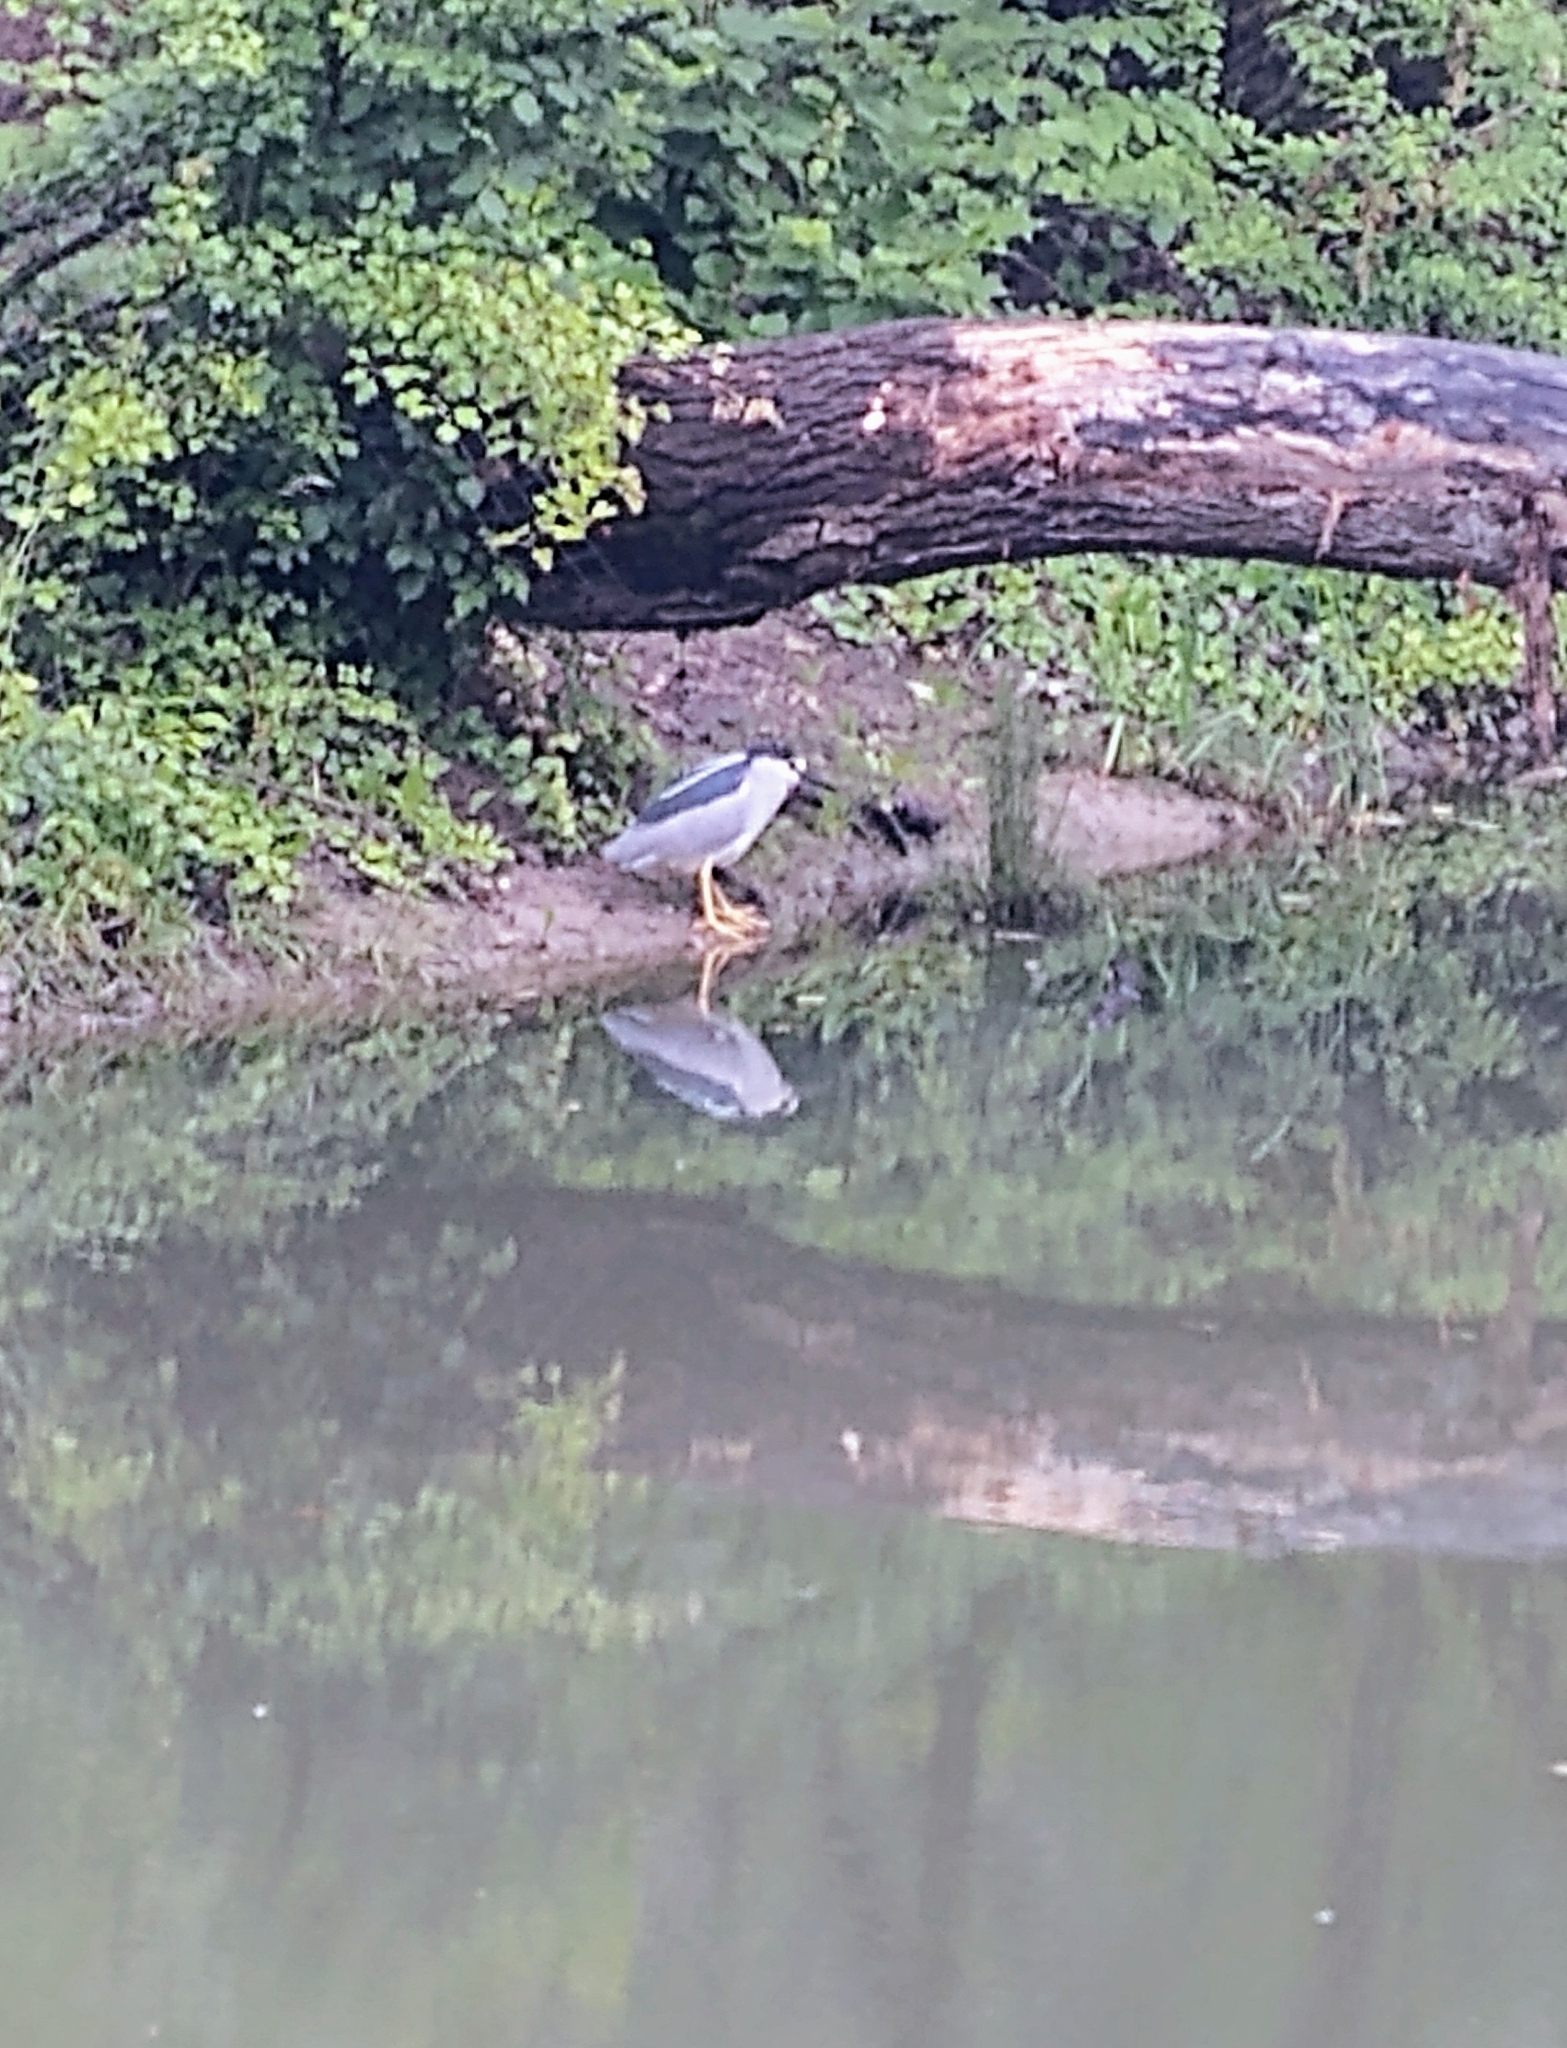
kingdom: Animalia
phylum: Chordata
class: Aves
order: Pelecaniformes
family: Ardeidae
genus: Nycticorax
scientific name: Nycticorax nycticorax
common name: Black-crowned night heron
